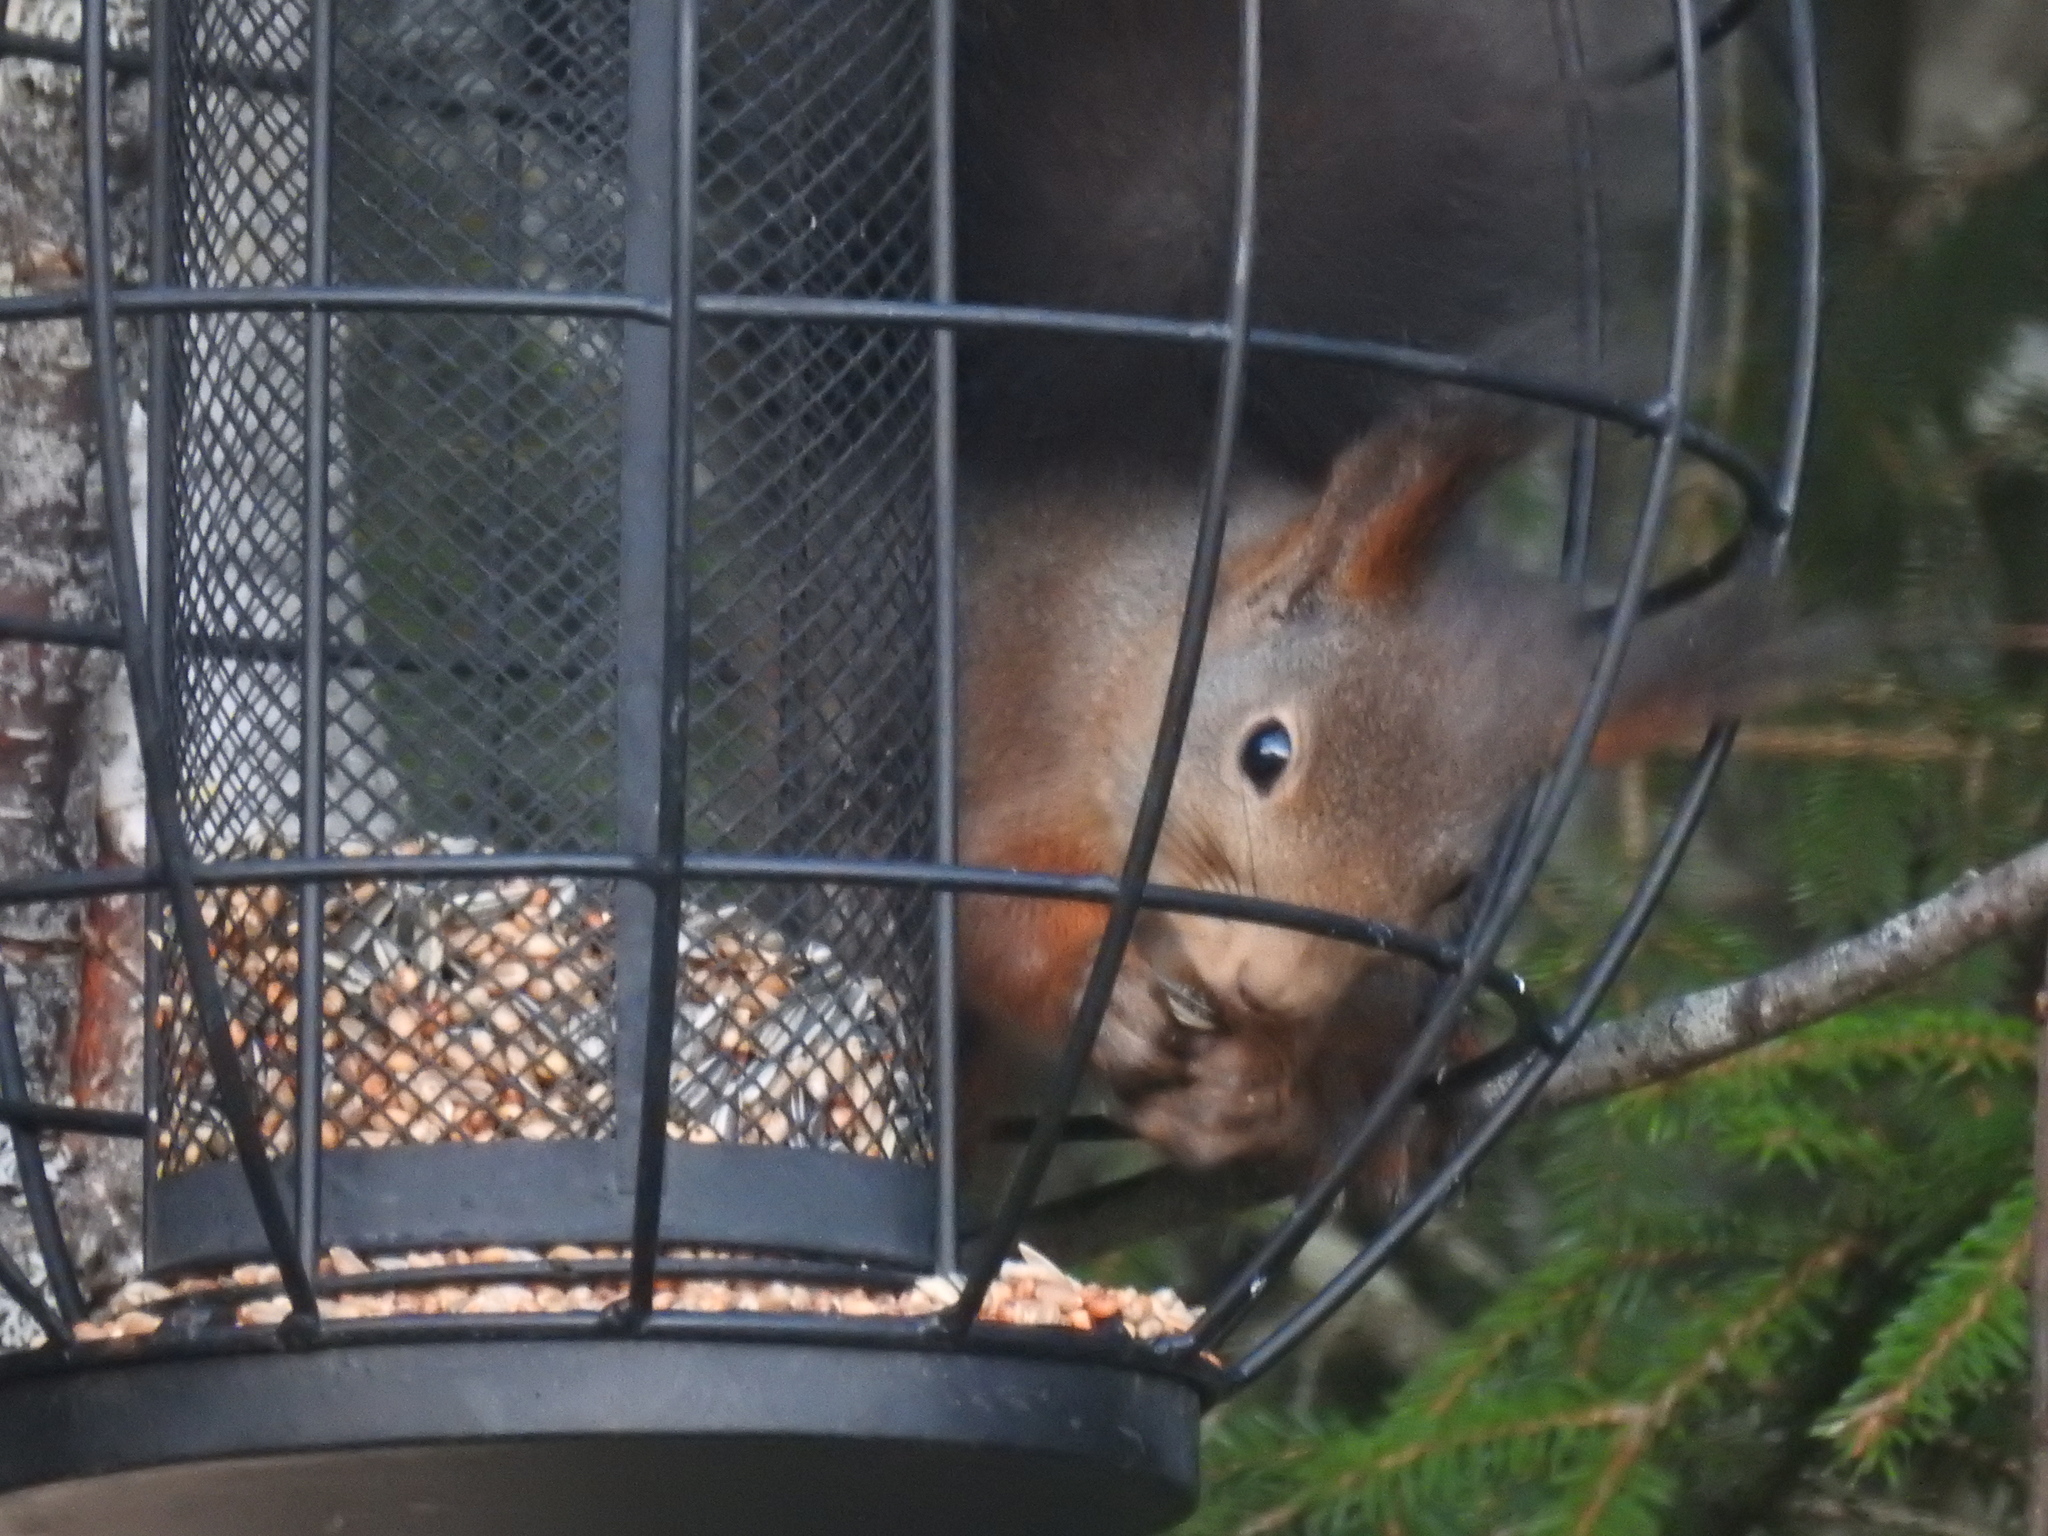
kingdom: Animalia
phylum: Chordata
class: Mammalia
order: Rodentia
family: Sciuridae
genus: Sciurus
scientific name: Sciurus vulgaris
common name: Eurasian red squirrel
